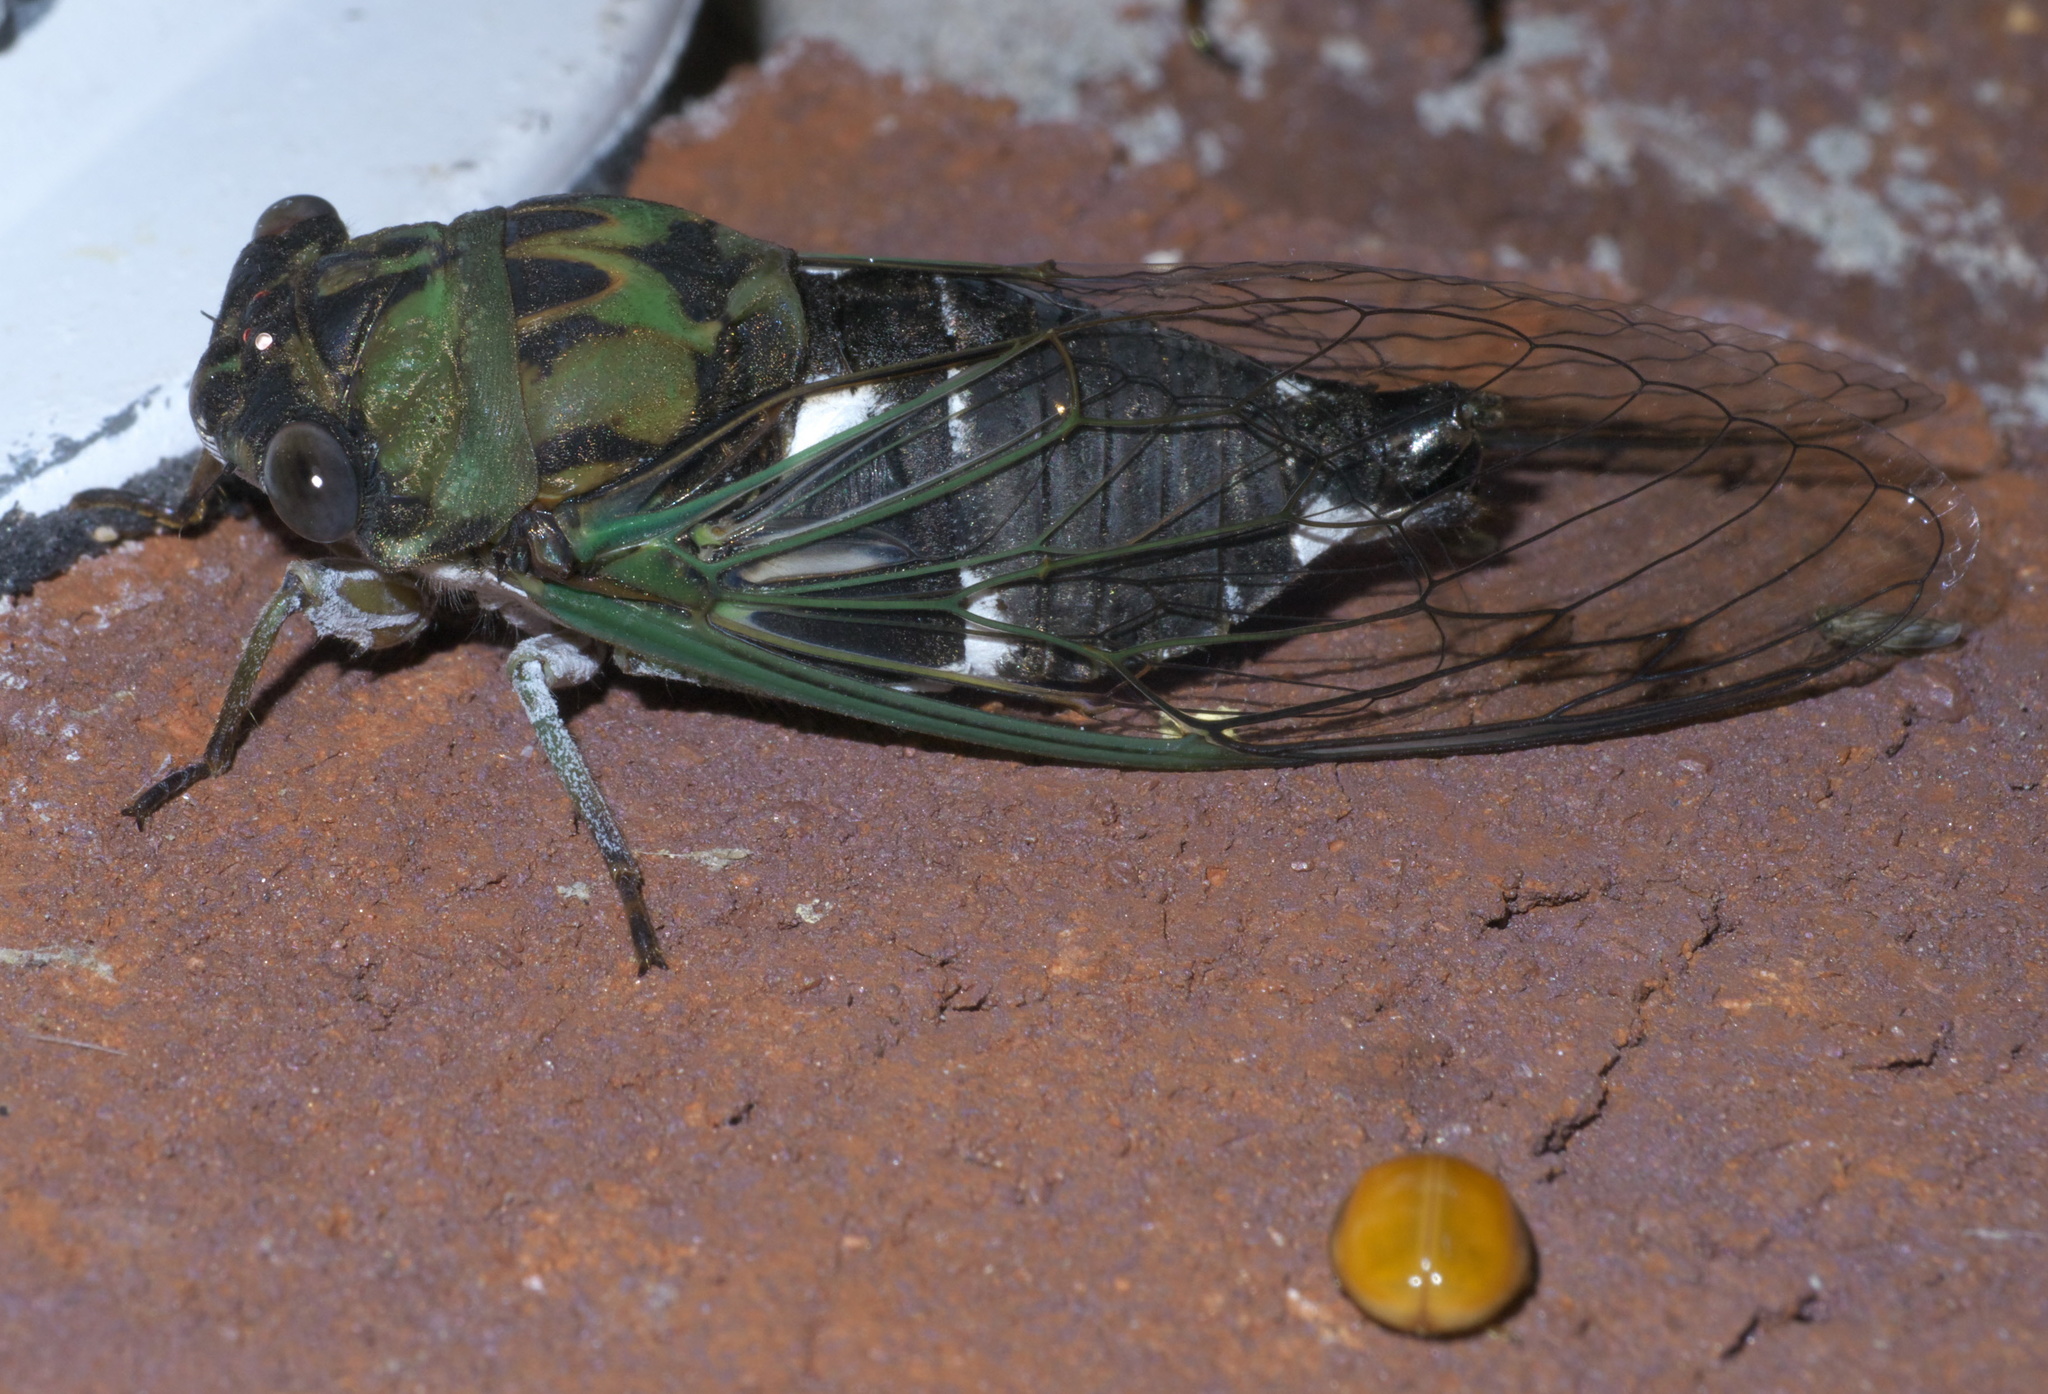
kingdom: Animalia
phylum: Arthropoda
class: Insecta
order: Hemiptera
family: Cicadidae
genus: Neotibicen
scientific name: Neotibicen pruinosus
